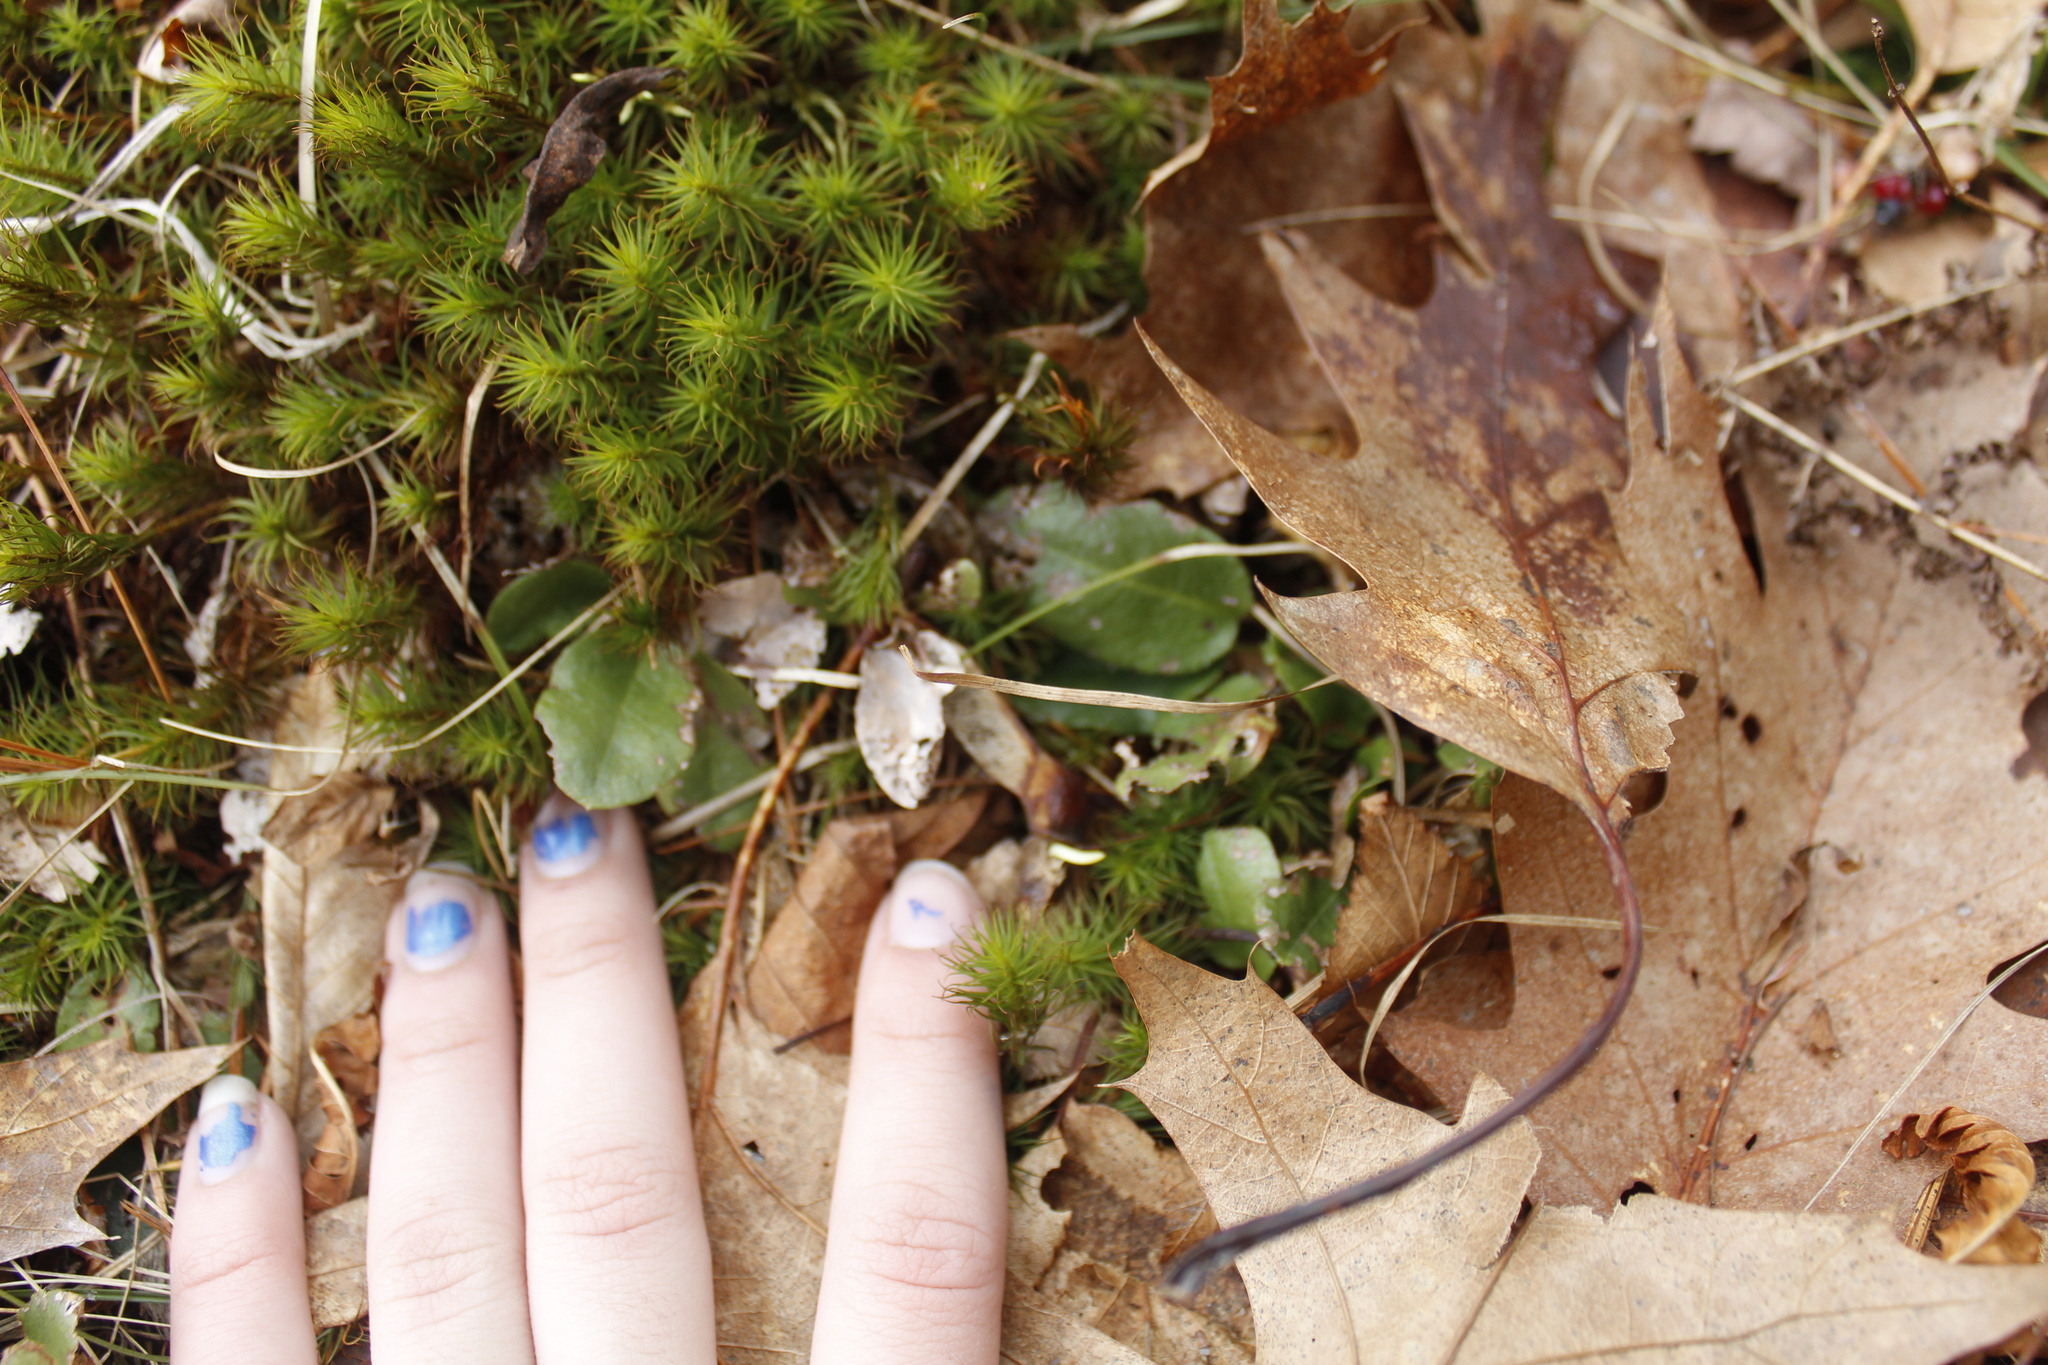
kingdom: Plantae
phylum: Tracheophyta
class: Magnoliopsida
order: Ericales
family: Ericaceae
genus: Epigaea
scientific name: Epigaea repens
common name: Gravelroot
